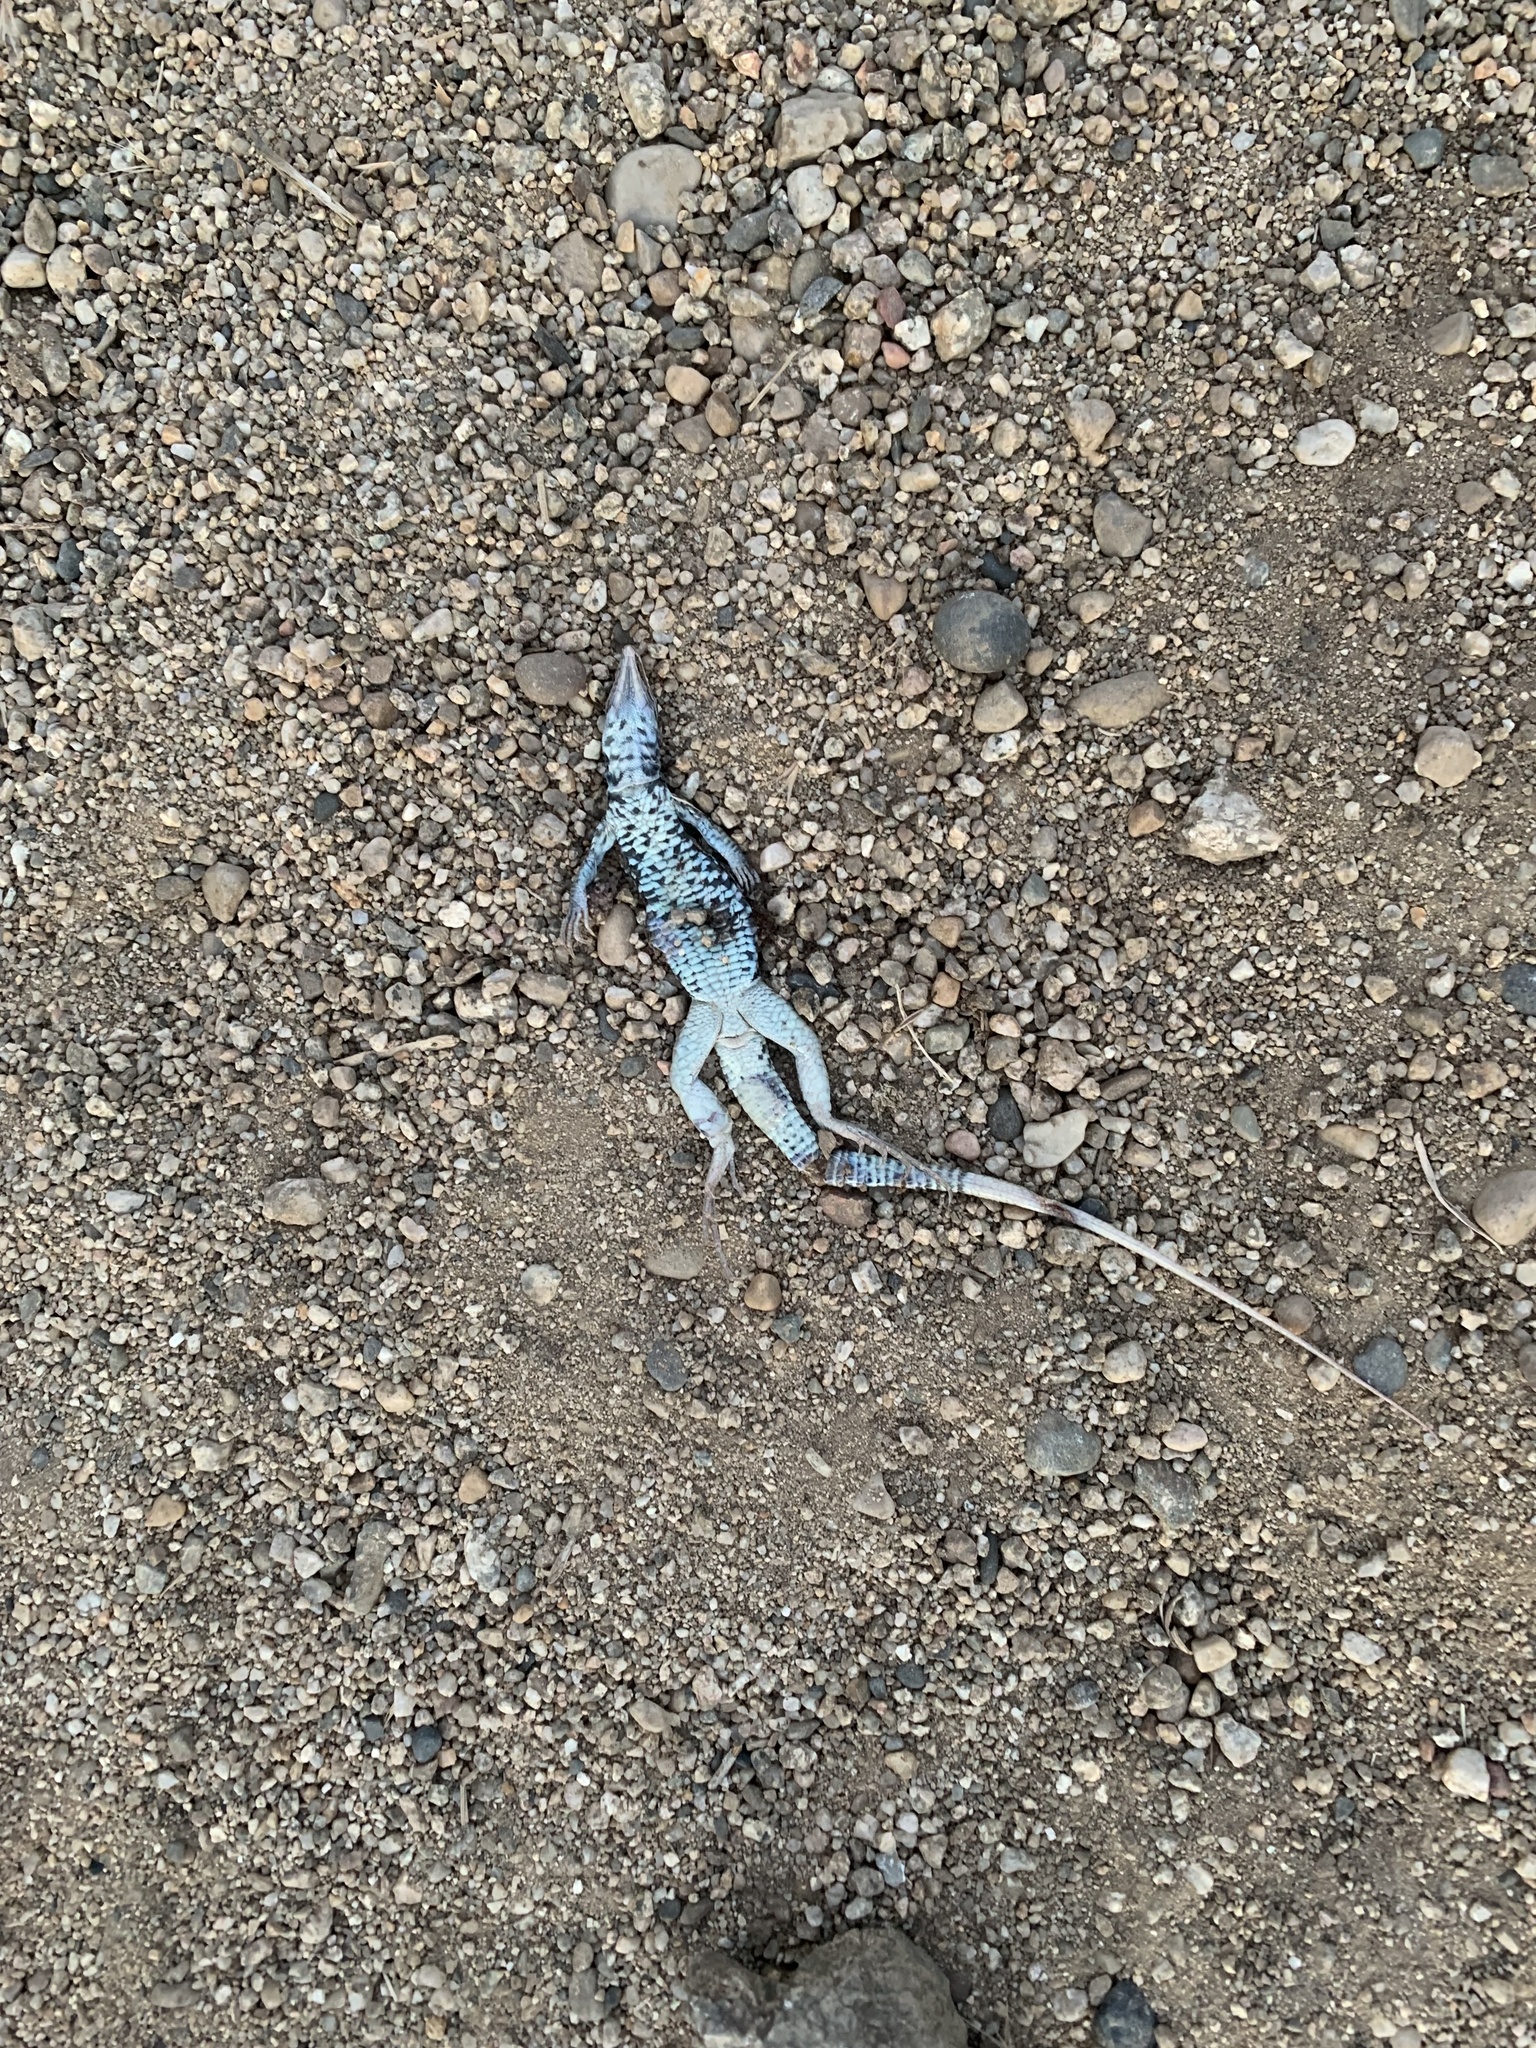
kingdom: Animalia
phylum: Chordata
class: Squamata
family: Teiidae
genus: Aspidoscelis
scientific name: Aspidoscelis tigris
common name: Tiger whiptail
